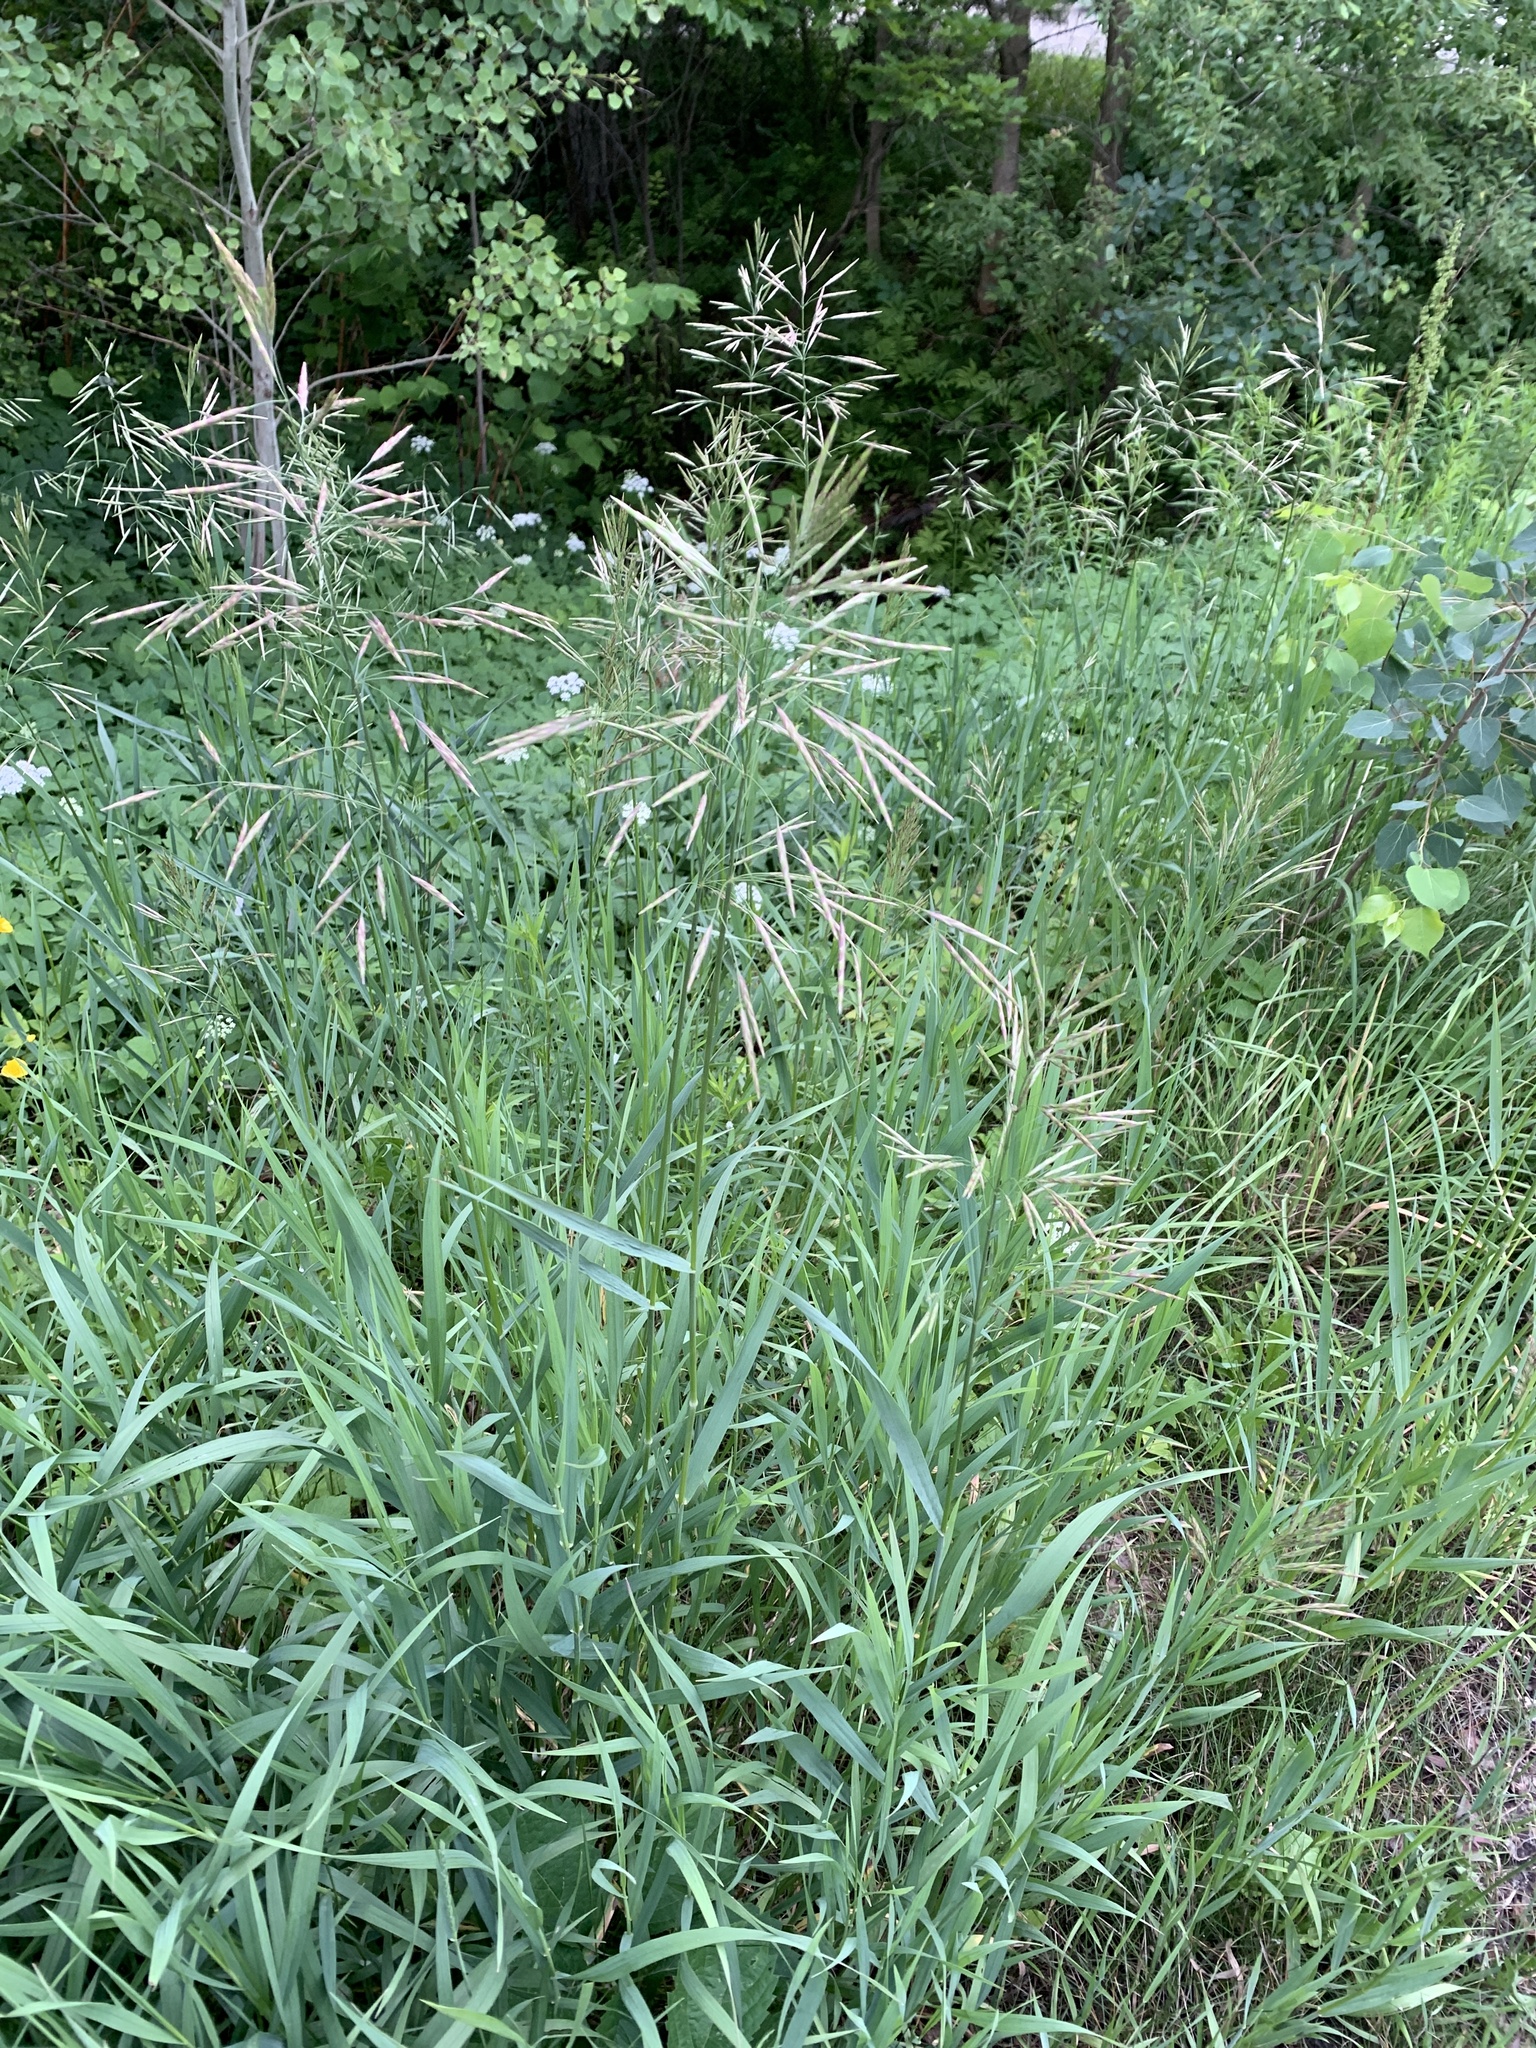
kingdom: Plantae
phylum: Tracheophyta
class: Liliopsida
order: Poales
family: Poaceae
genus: Bromus
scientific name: Bromus inermis
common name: Smooth brome
